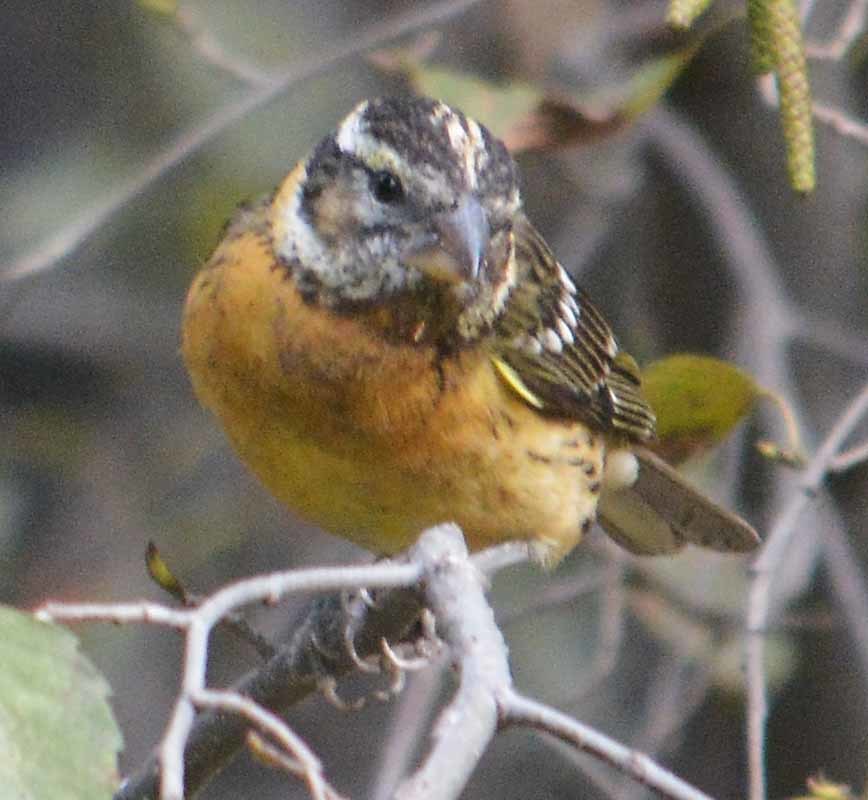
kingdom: Animalia
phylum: Chordata
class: Aves
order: Passeriformes
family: Cardinalidae
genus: Pheucticus
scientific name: Pheucticus melanocephalus
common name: Black-headed grosbeak
